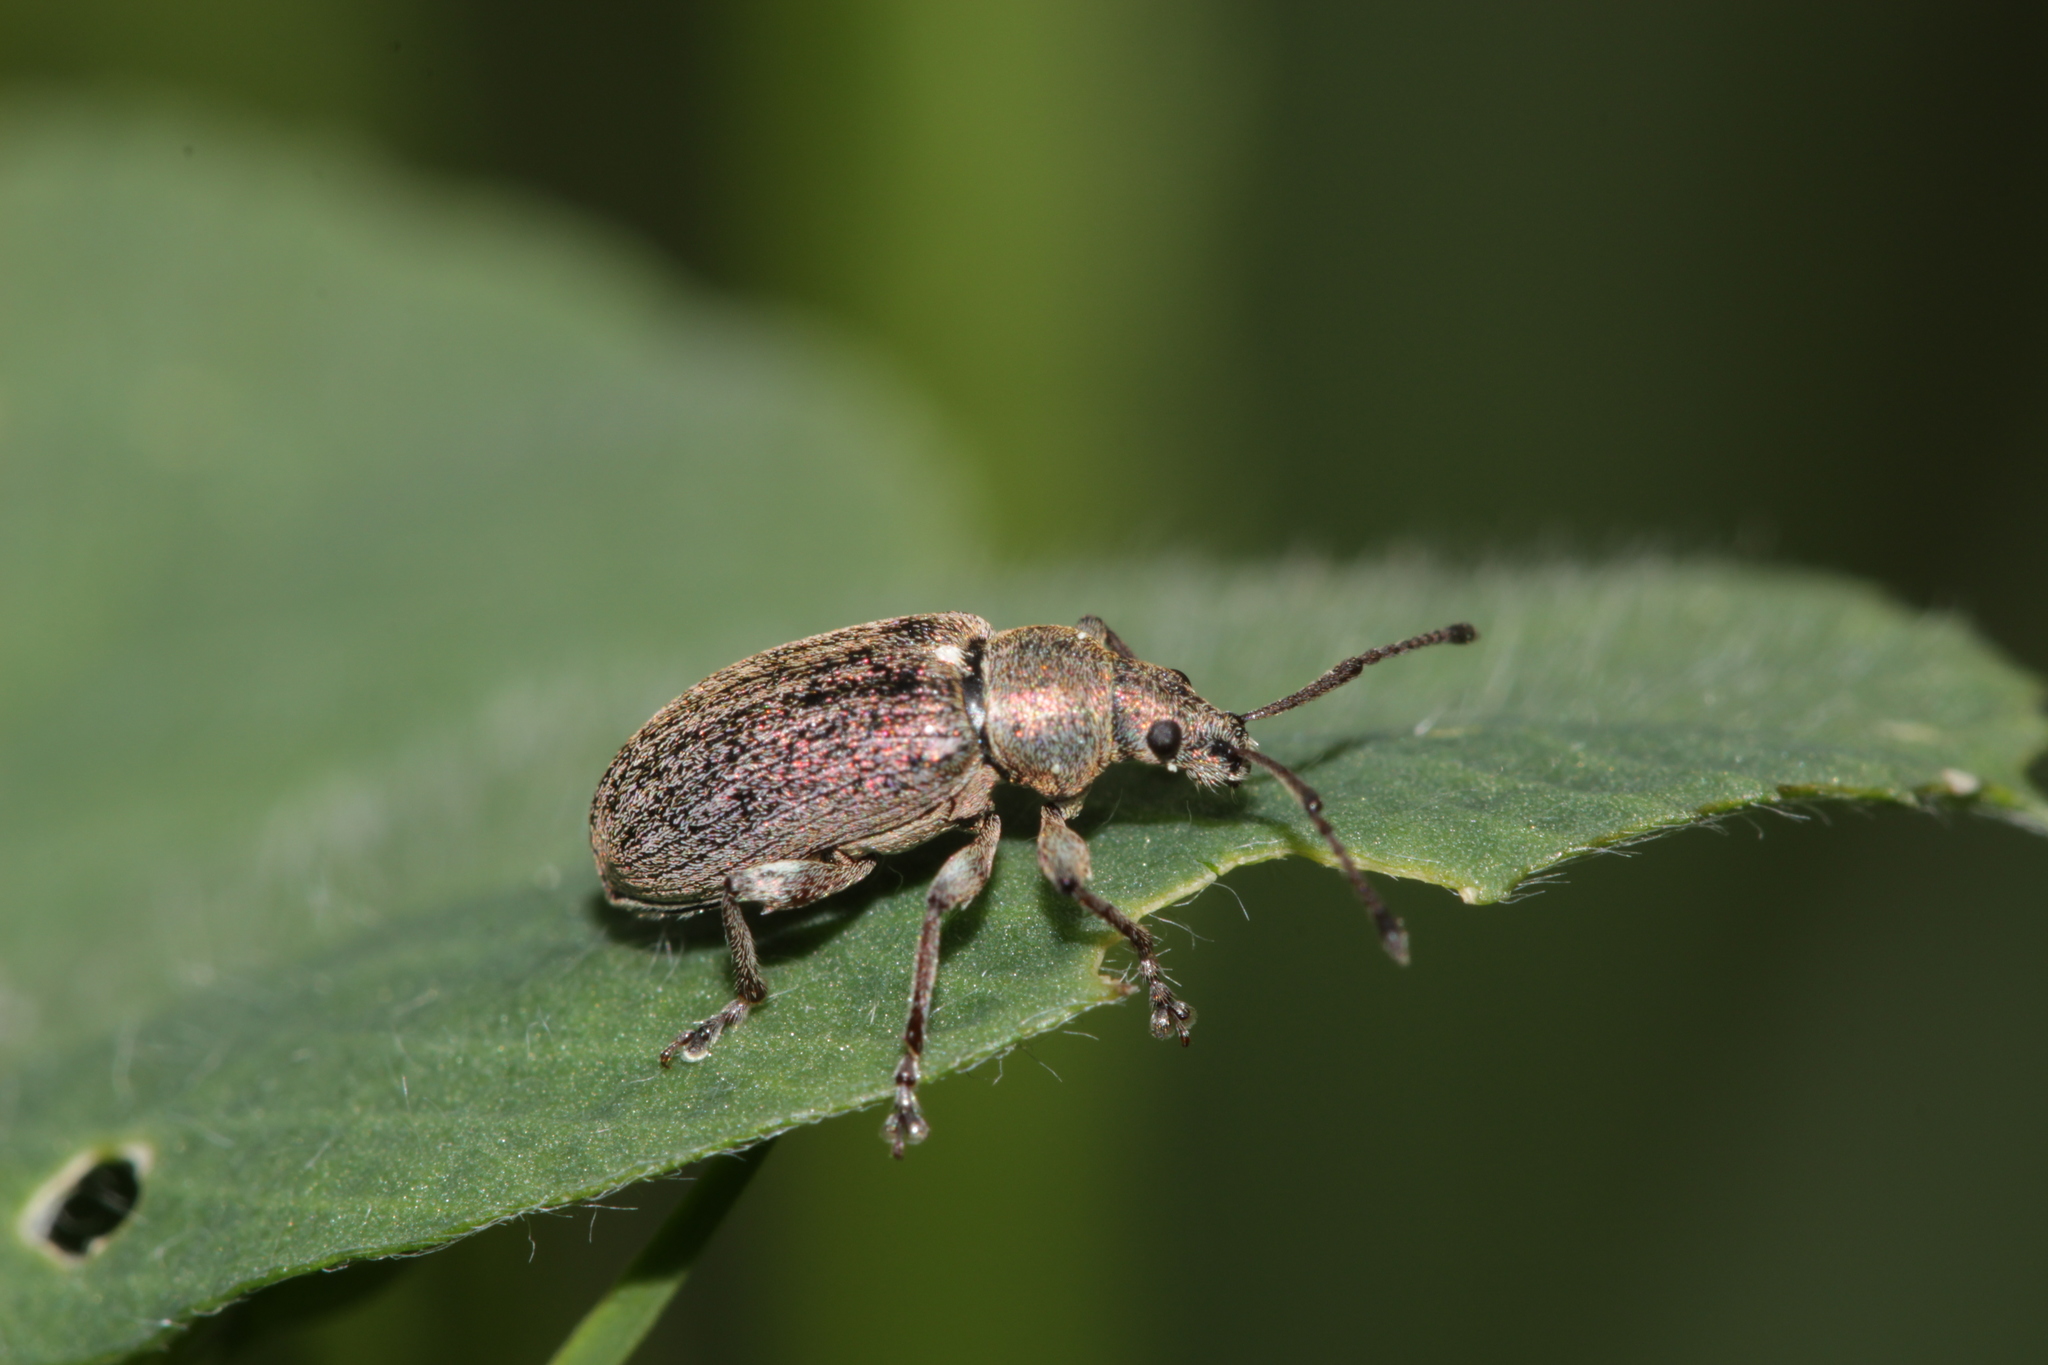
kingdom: Animalia
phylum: Arthropoda
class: Insecta
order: Coleoptera
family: Curculionidae
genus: Phyllobius
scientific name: Phyllobius pyri
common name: Common leaf weevil
